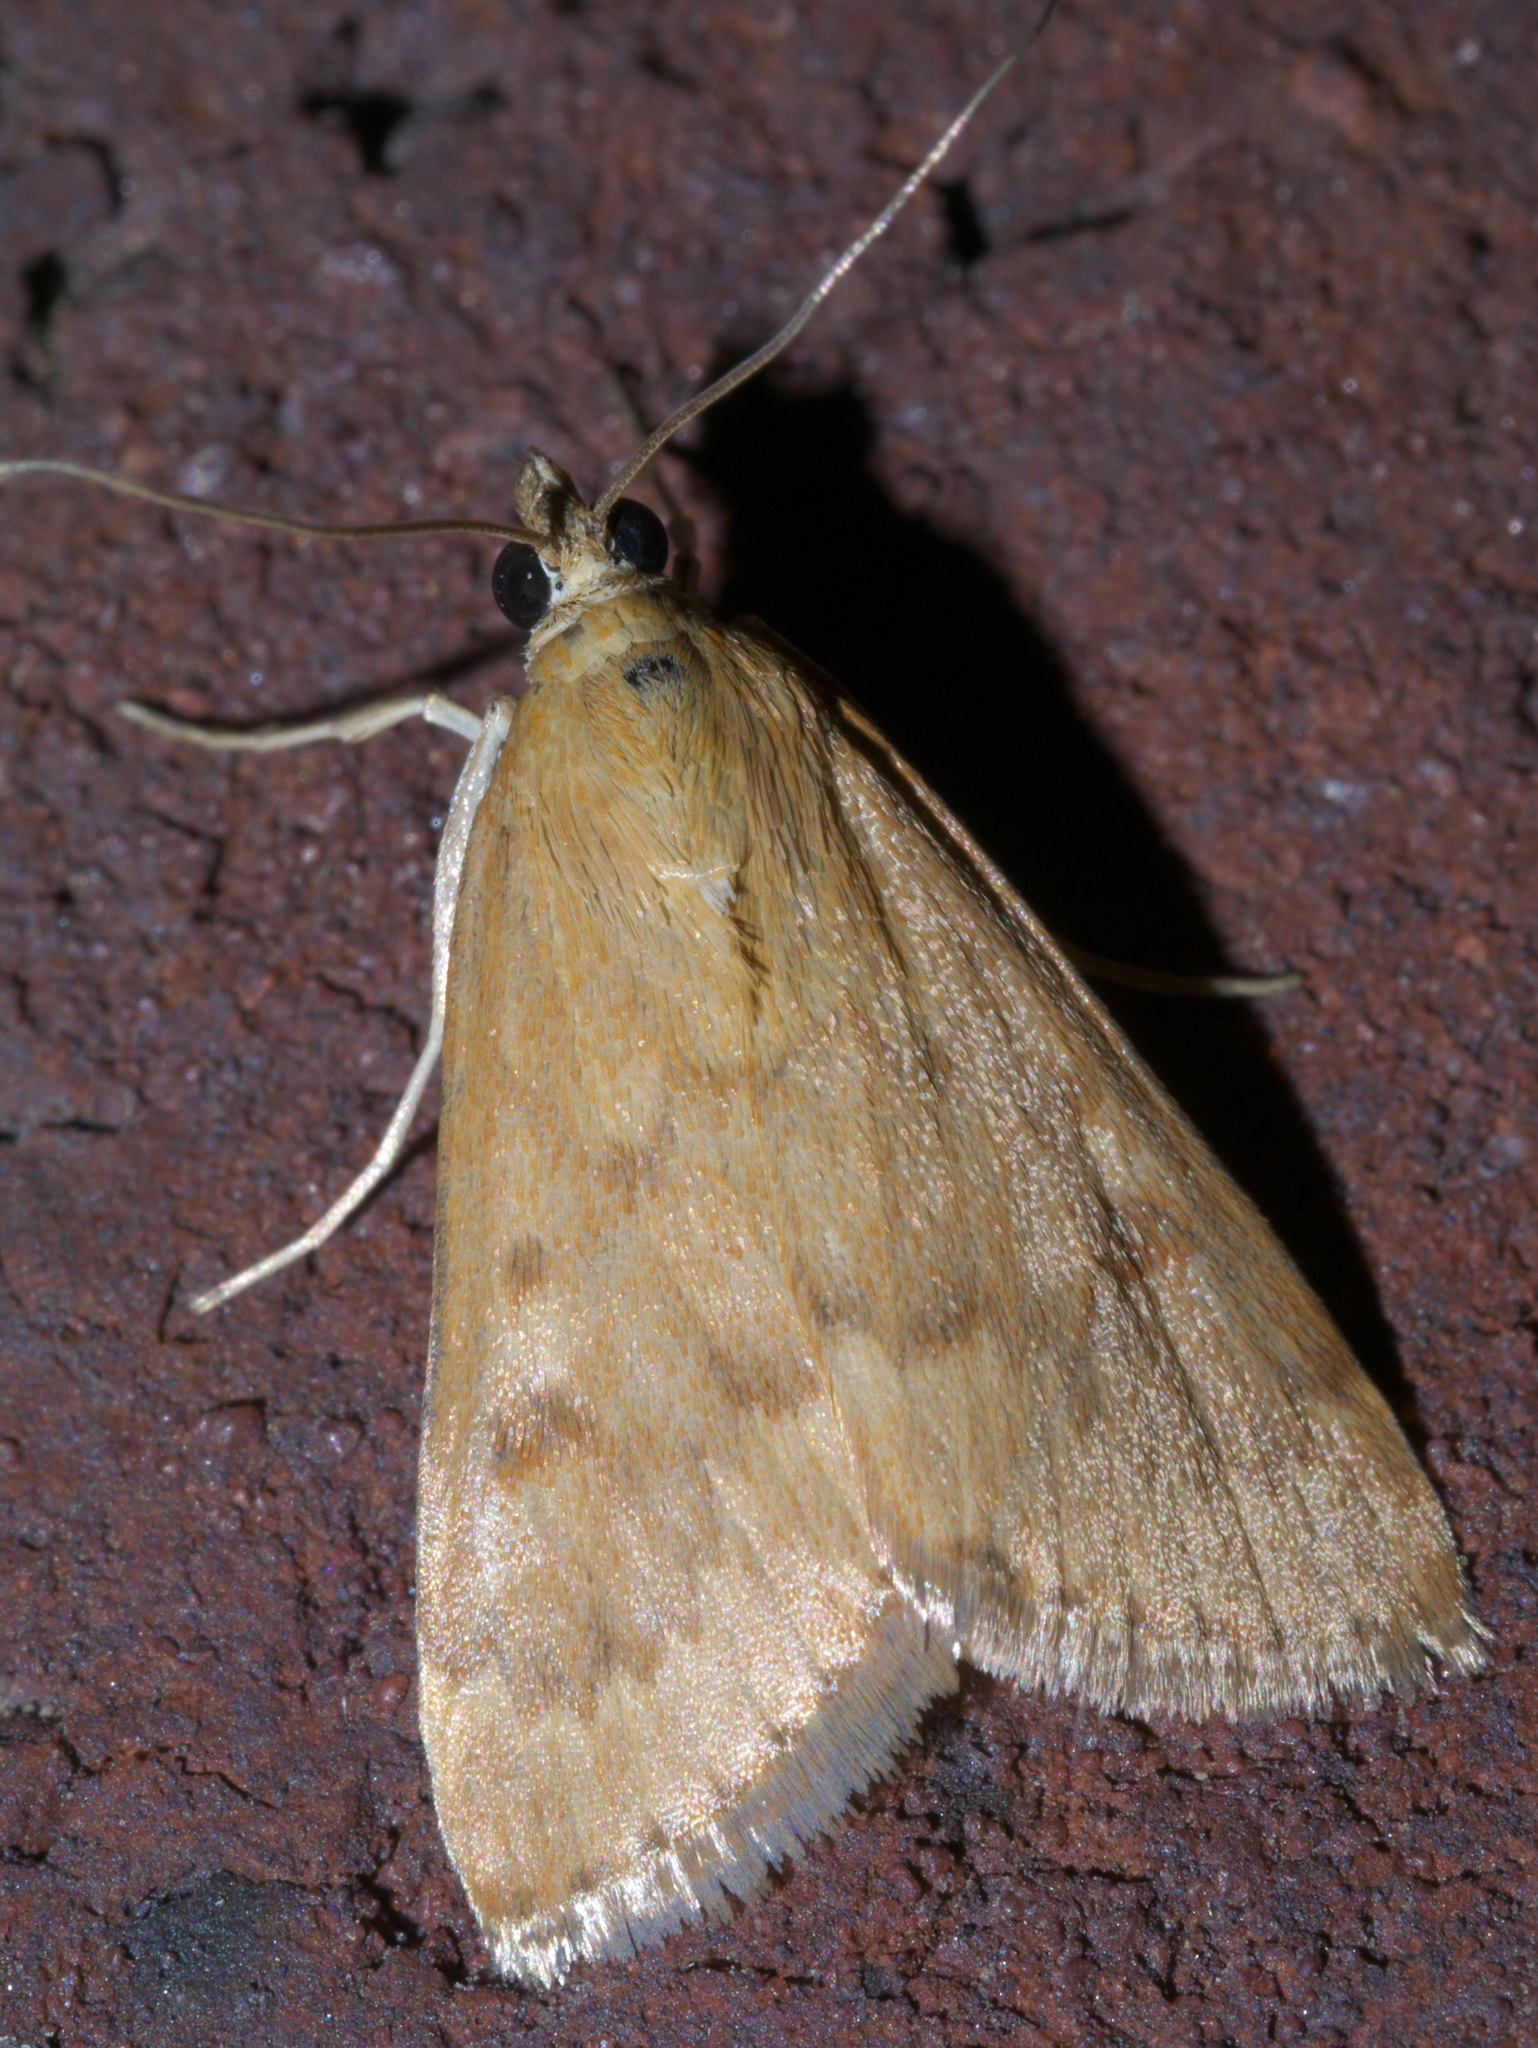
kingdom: Animalia
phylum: Arthropoda
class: Insecta
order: Lepidoptera
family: Crambidae
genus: Achyra
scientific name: Achyra rantalis
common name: Garden webworm
